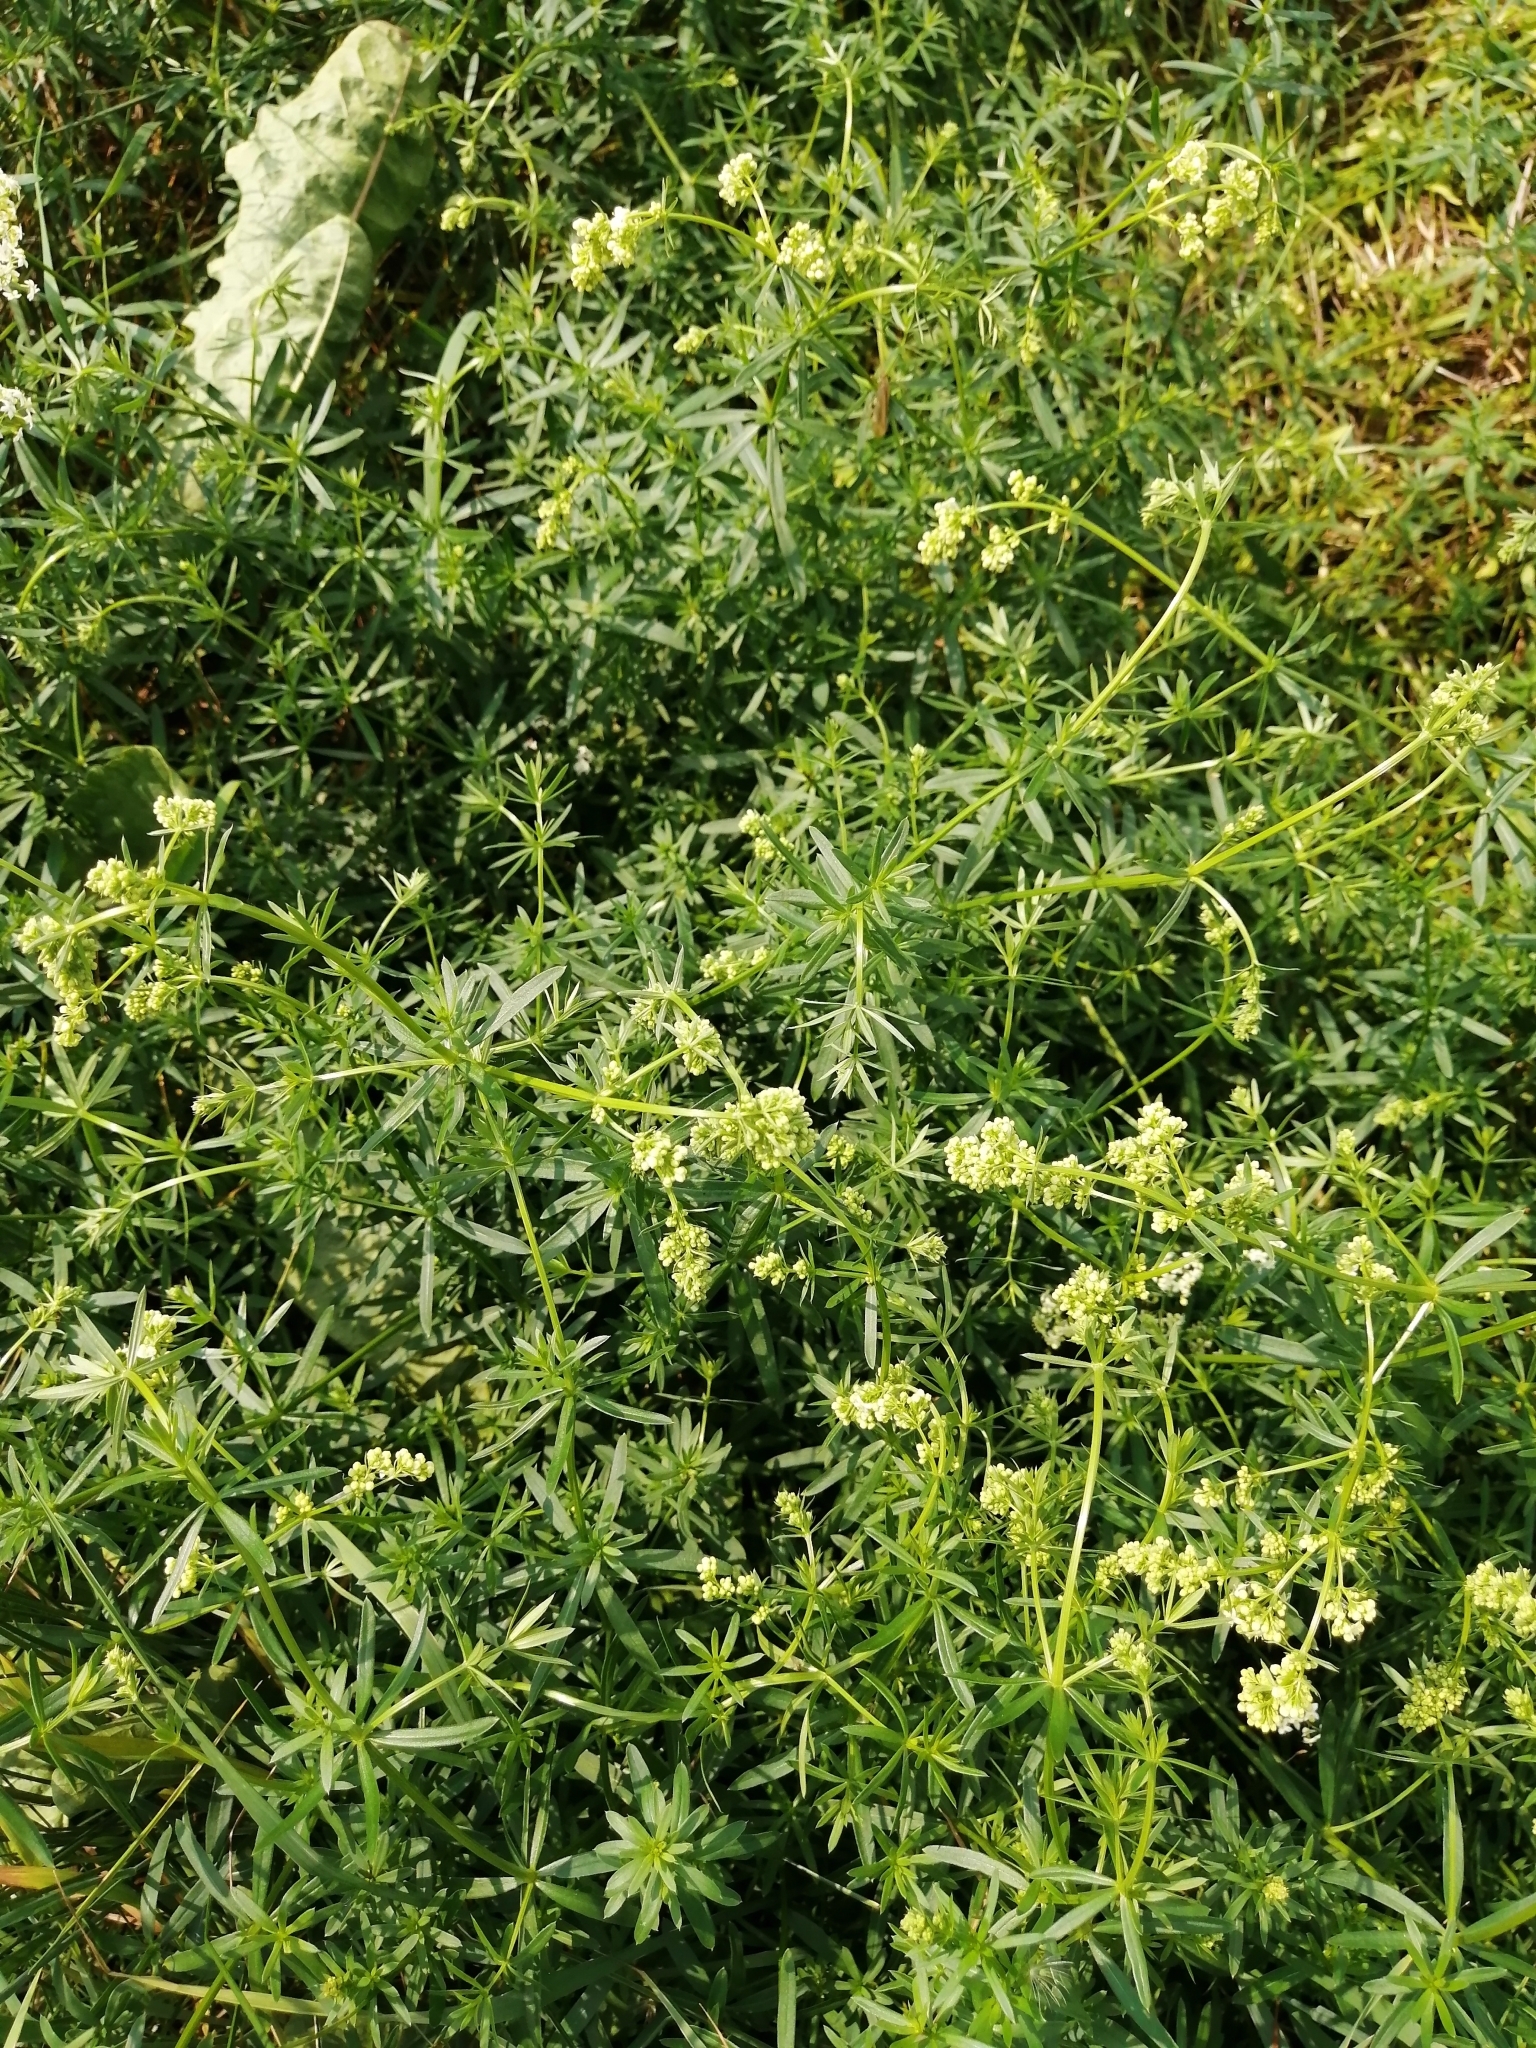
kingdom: Plantae
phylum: Tracheophyta
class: Magnoliopsida
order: Gentianales
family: Rubiaceae
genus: Galium
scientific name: Galium mollugo
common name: Hedge bedstraw
